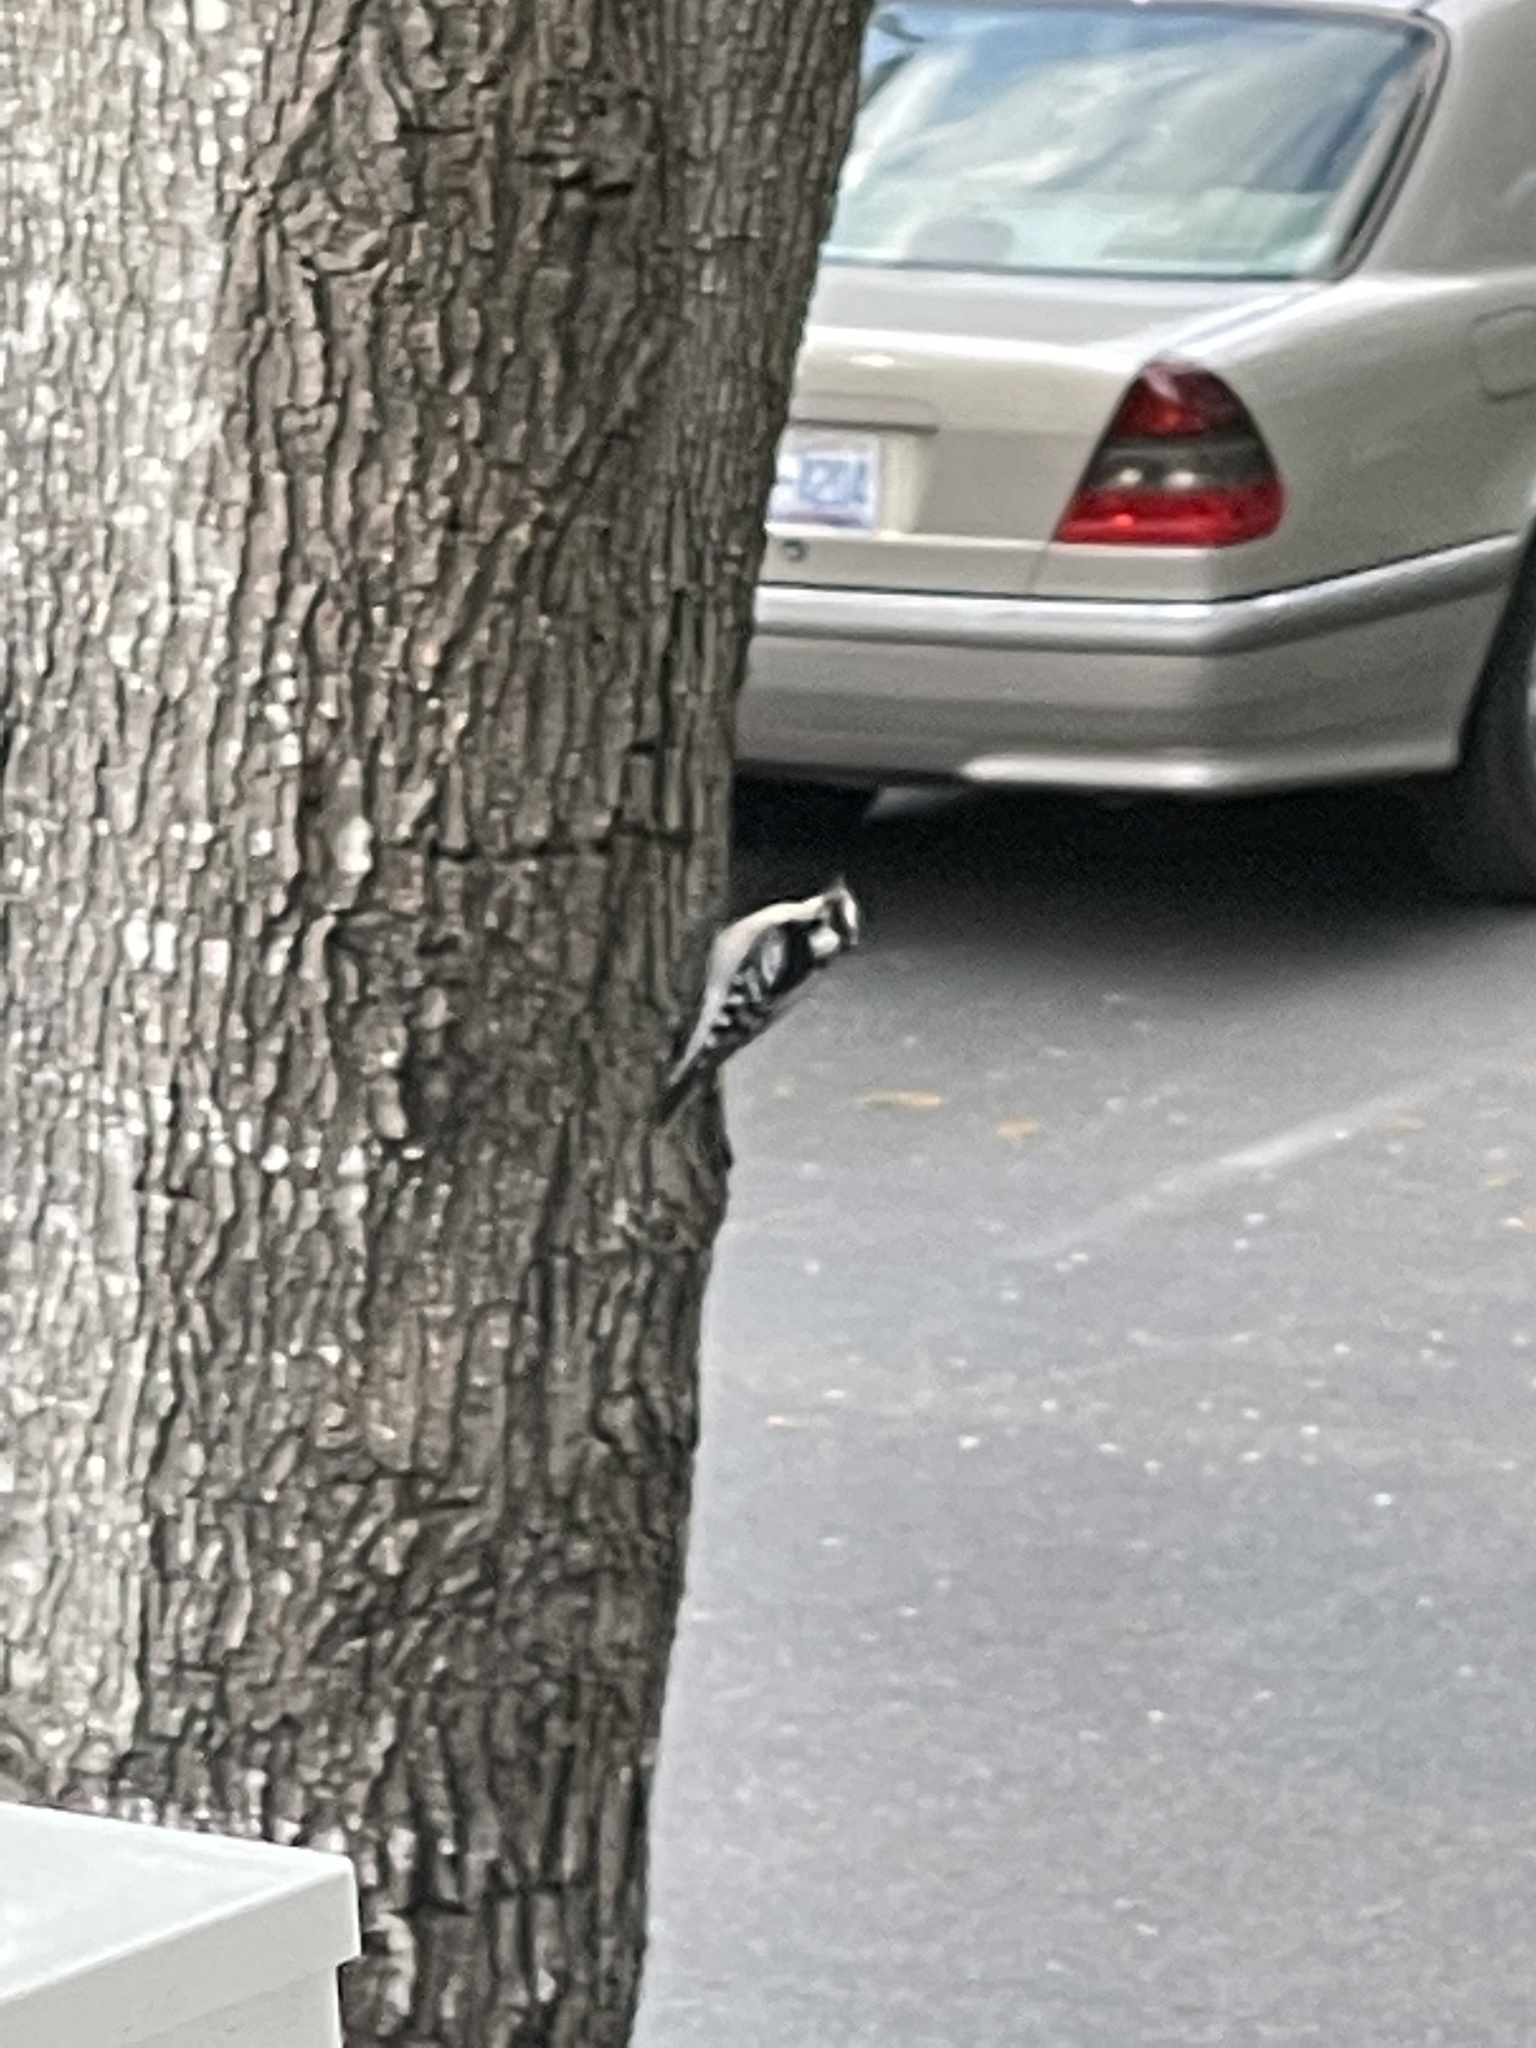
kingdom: Animalia
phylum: Chordata
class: Aves
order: Piciformes
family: Picidae
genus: Dryobates
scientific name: Dryobates pubescens
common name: Downy woodpecker
